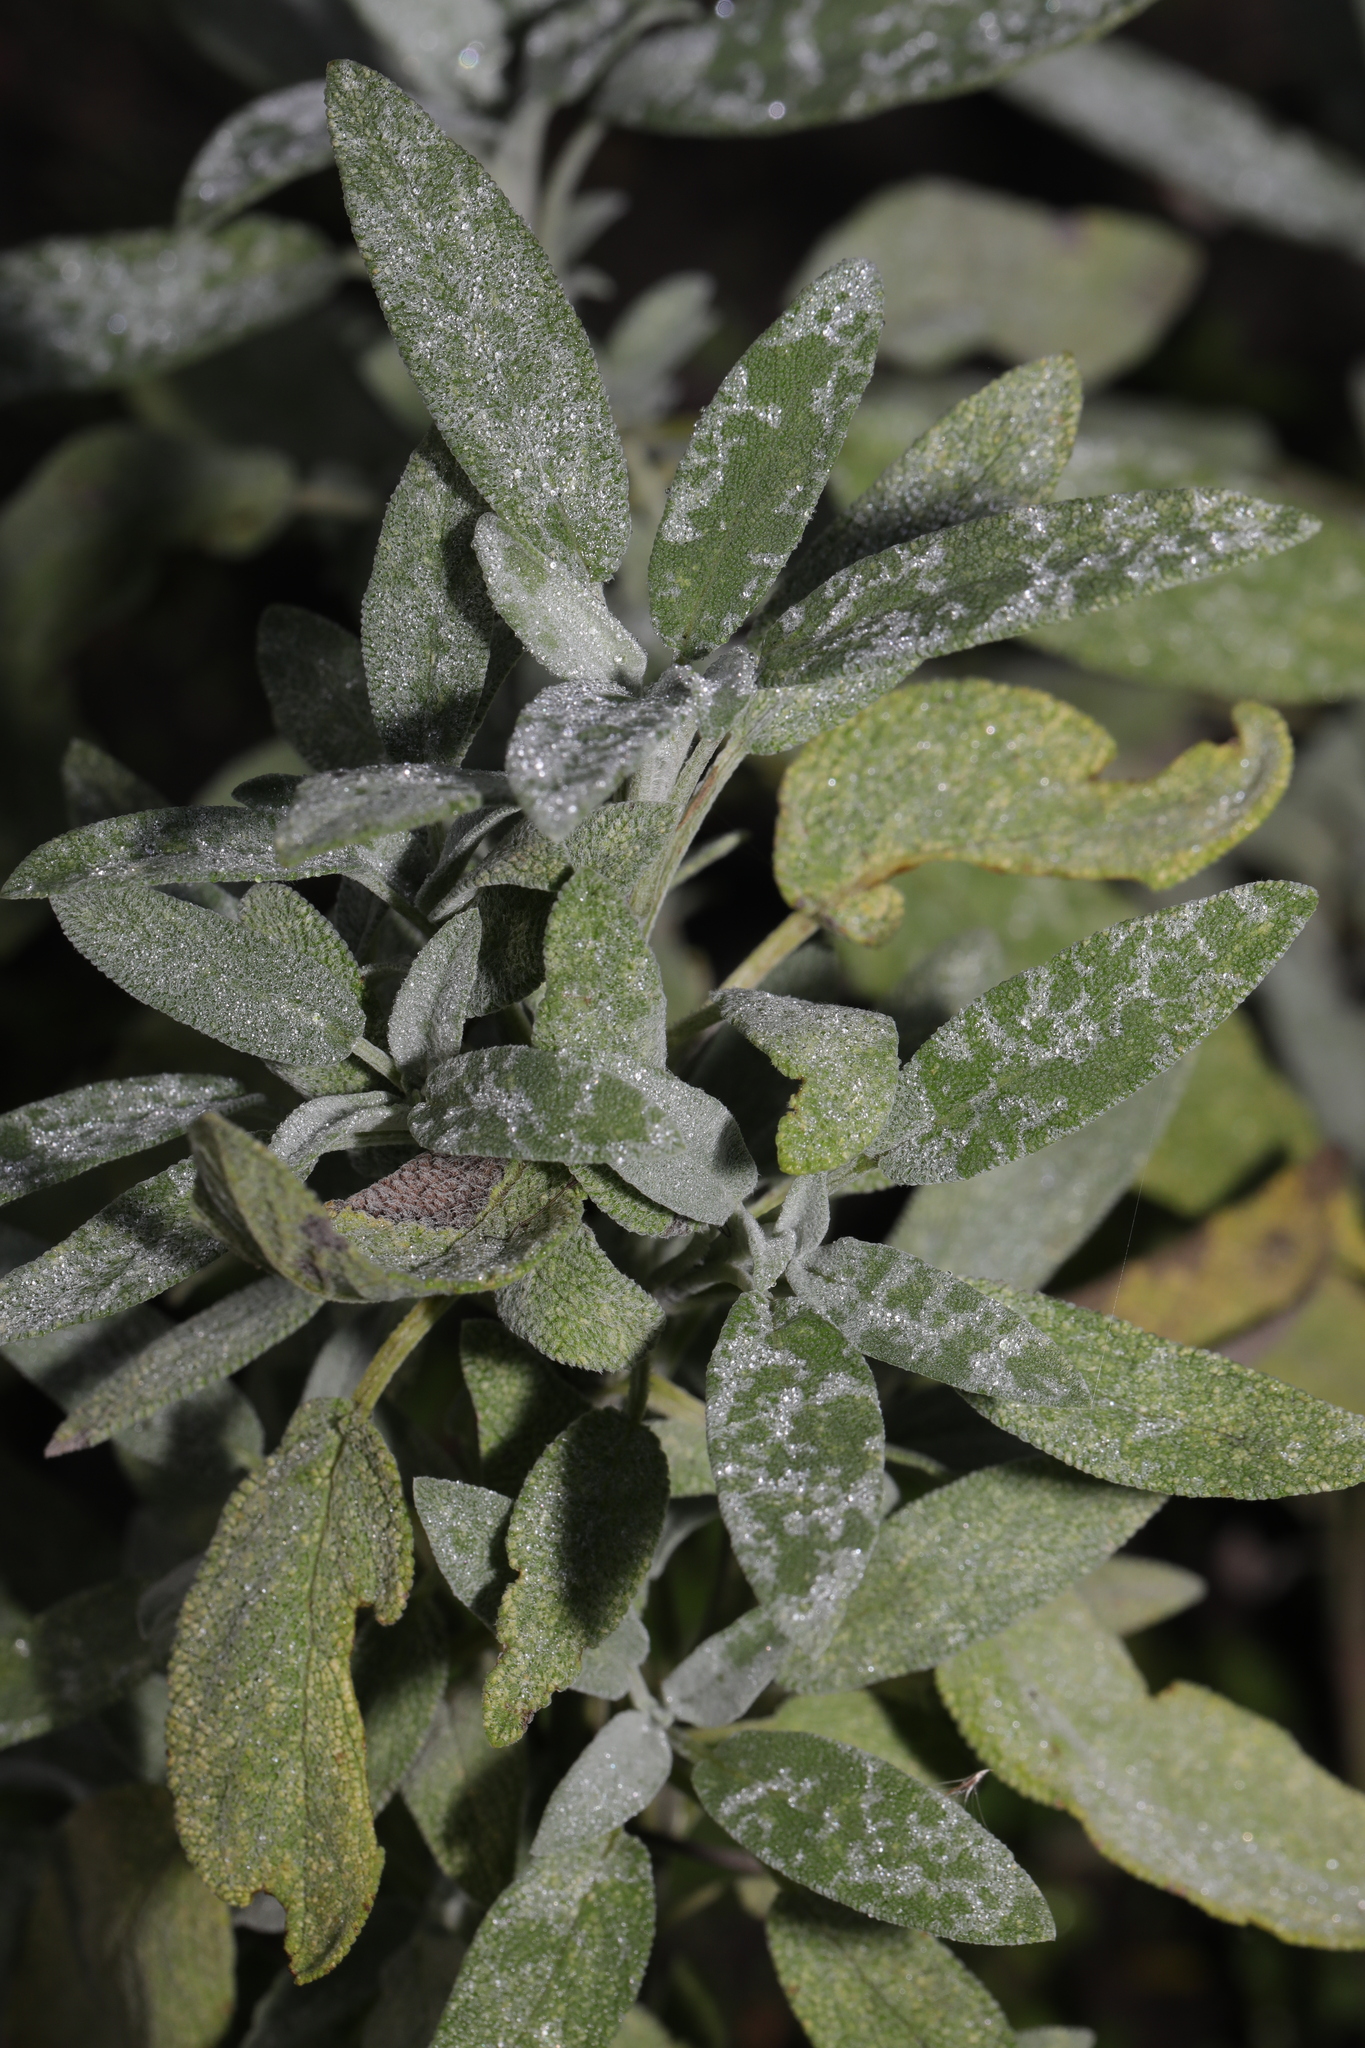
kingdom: Plantae
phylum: Tracheophyta
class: Magnoliopsida
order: Lamiales
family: Lamiaceae
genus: Salvia
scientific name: Salvia officinalis
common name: Sage
